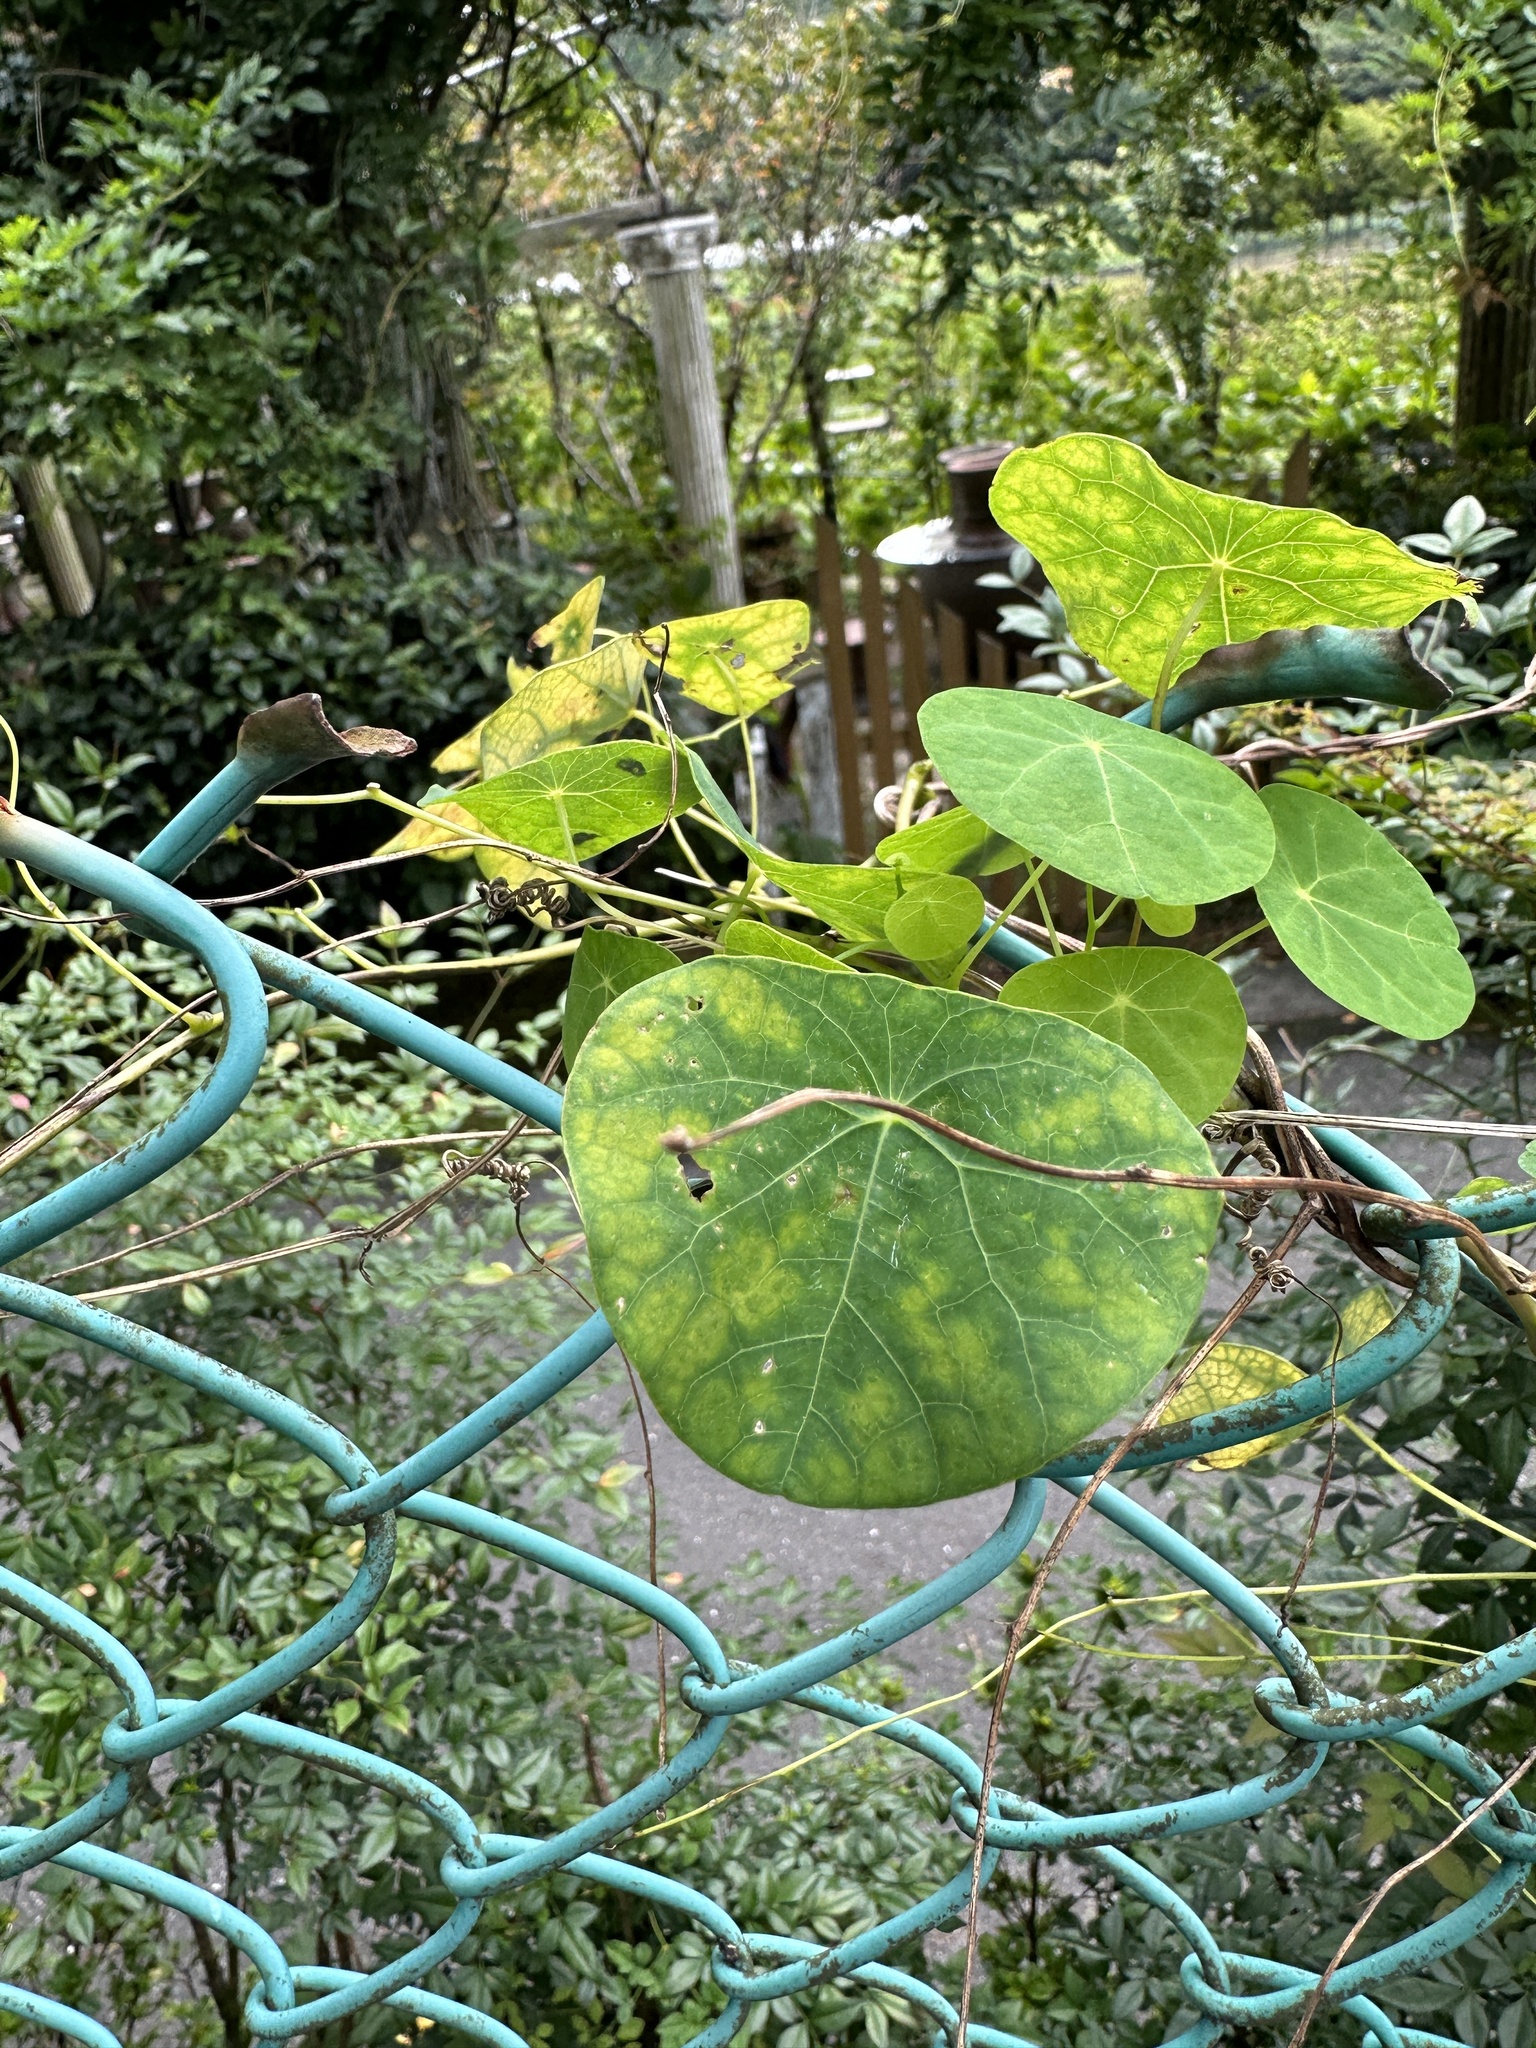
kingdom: Plantae
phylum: Tracheophyta
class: Magnoliopsida
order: Ranunculales
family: Menispermaceae
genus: Stephania
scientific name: Stephania cephalantha
